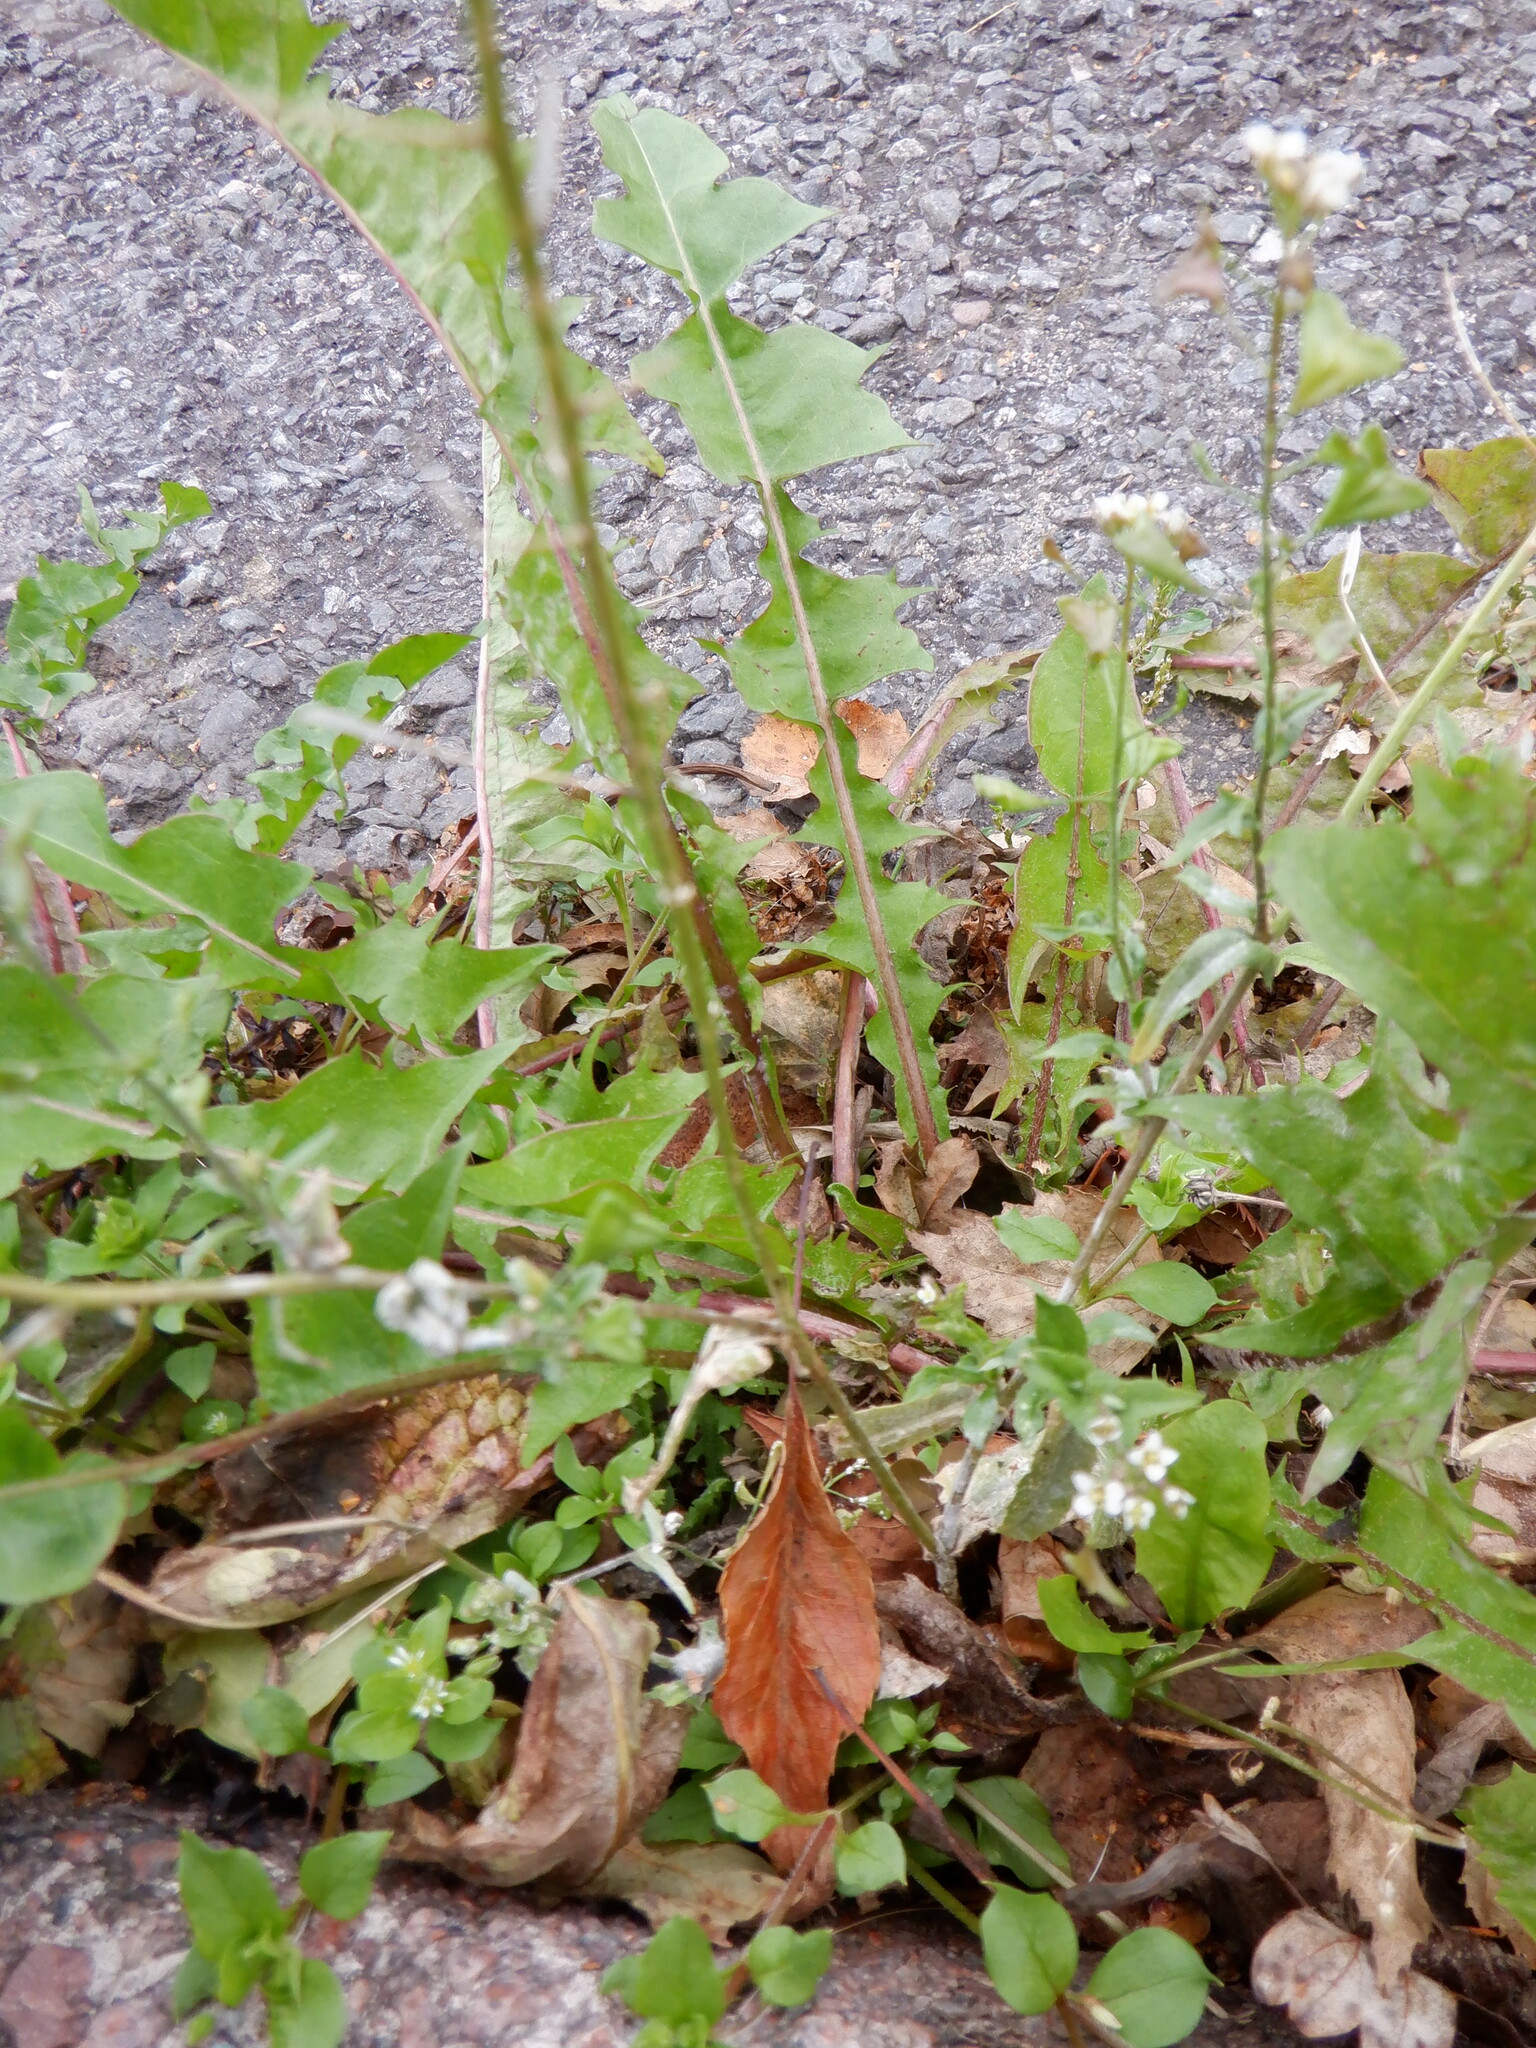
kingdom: Plantae
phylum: Tracheophyta
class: Magnoliopsida
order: Brassicales
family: Brassicaceae
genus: Capsella
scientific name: Capsella bursa-pastoris
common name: Shepherd's purse
